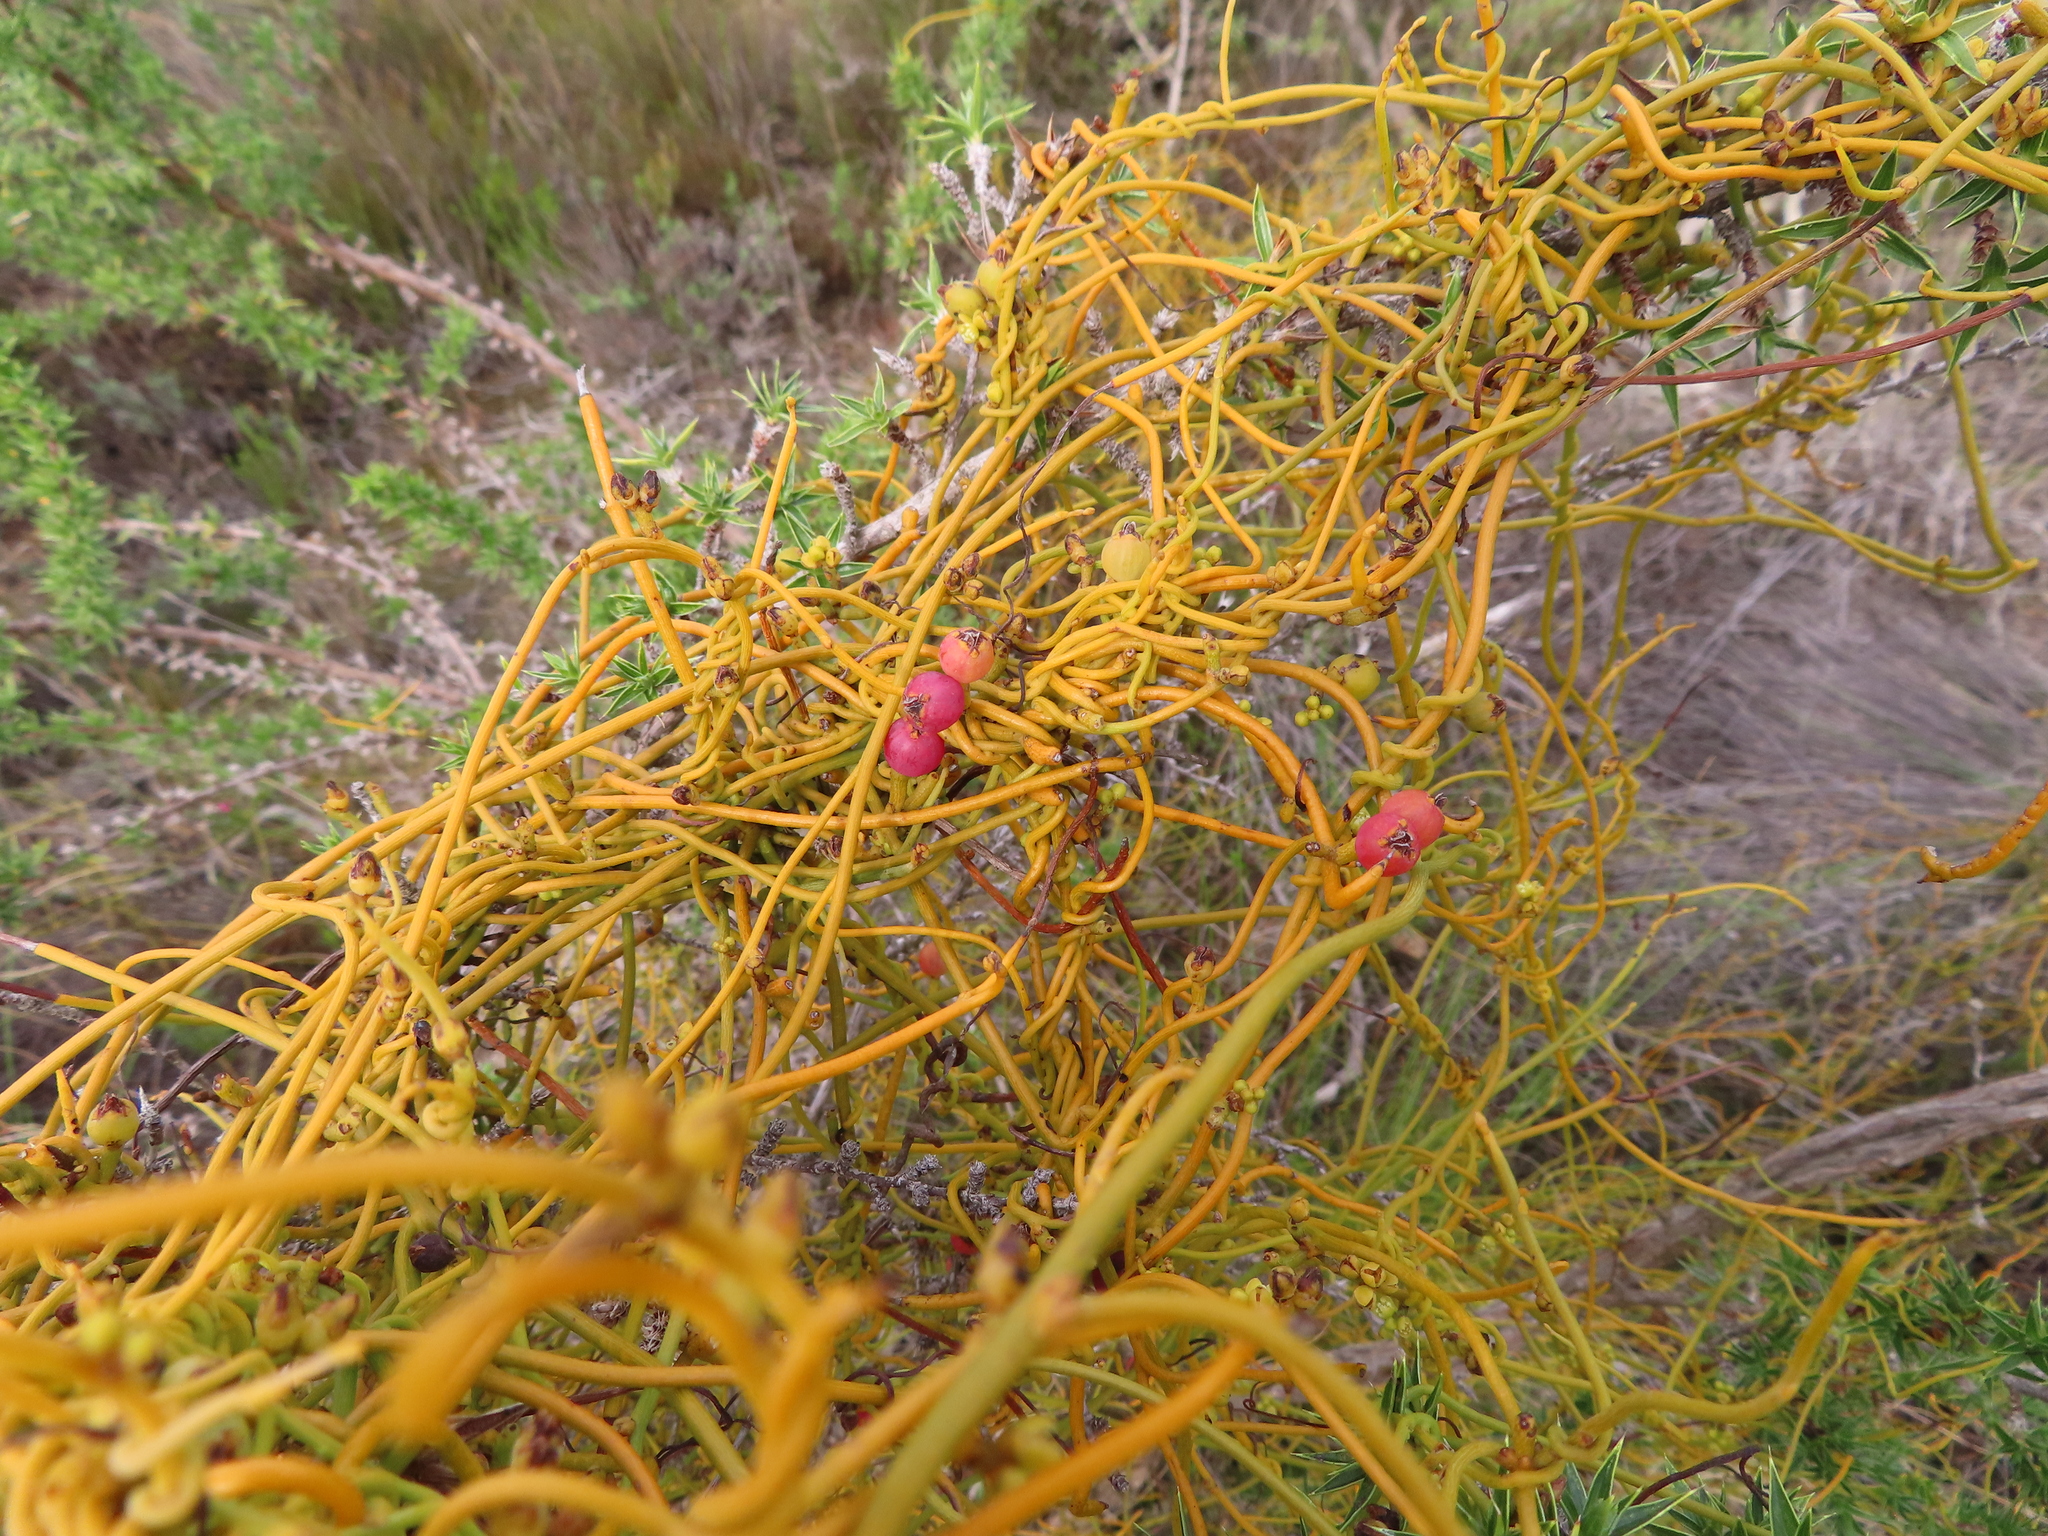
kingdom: Plantae
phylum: Tracheophyta
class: Magnoliopsida
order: Laurales
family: Lauraceae
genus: Cassytha
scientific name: Cassytha ciliolata
